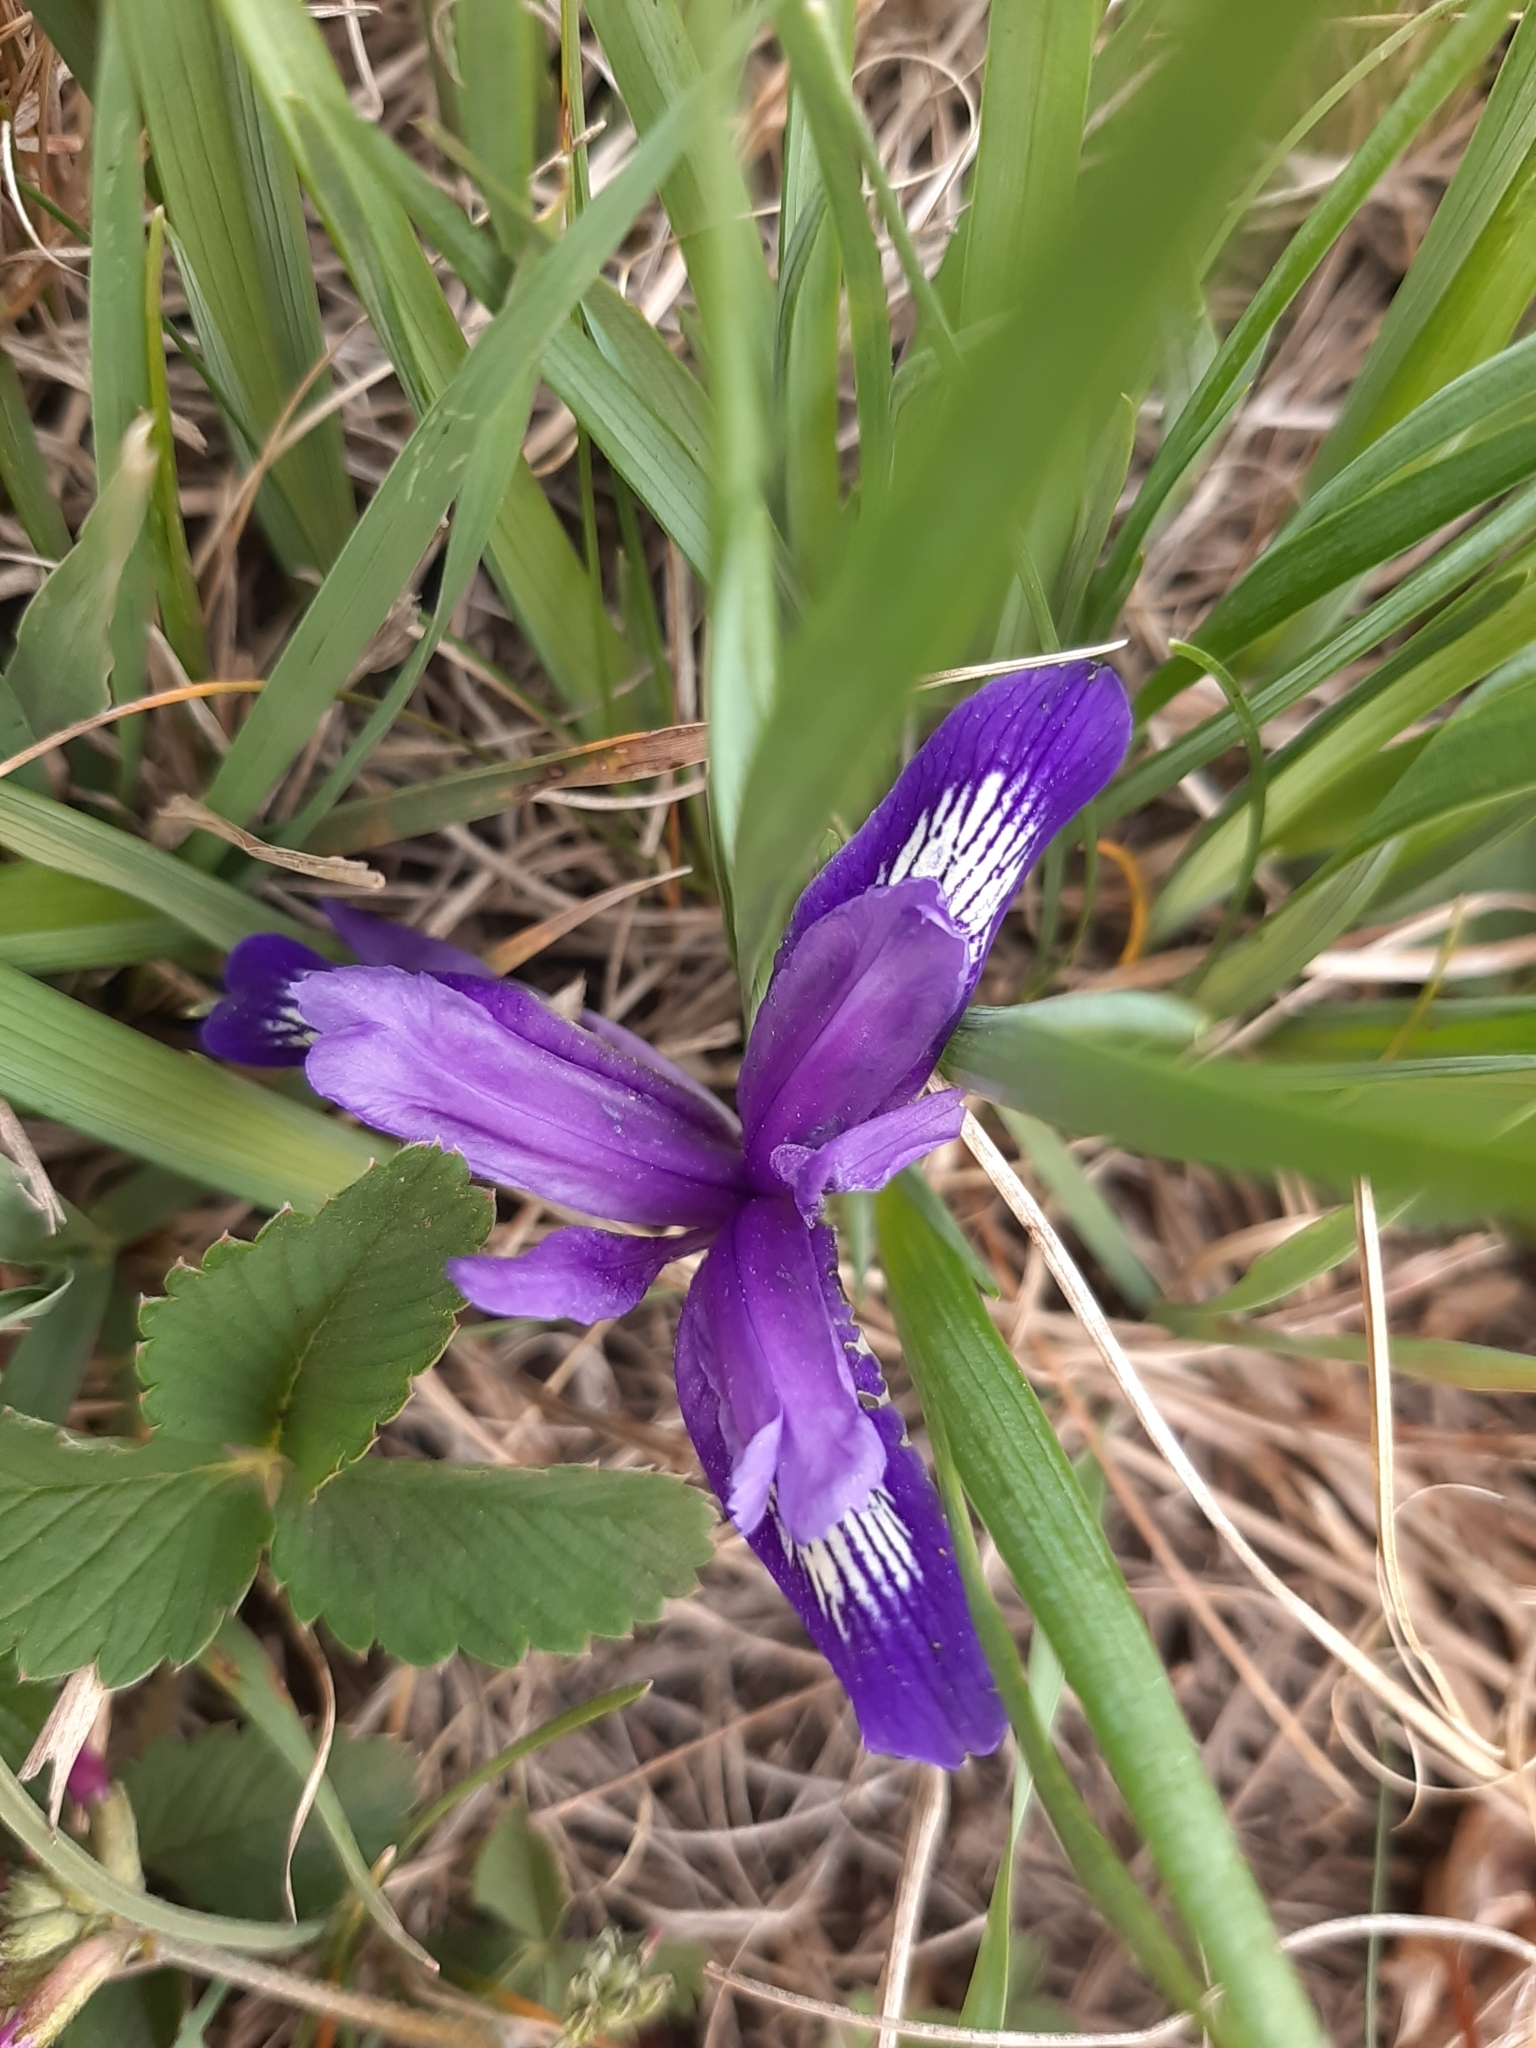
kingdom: Plantae
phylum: Tracheophyta
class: Liliopsida
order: Asparagales
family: Iridaceae
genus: Iris
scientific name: Iris ruthenica
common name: Purple-bract iris
